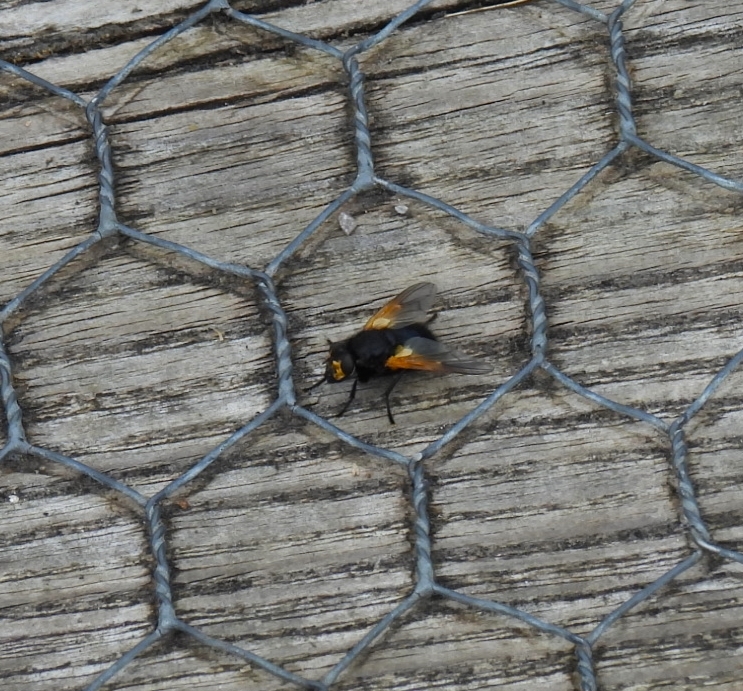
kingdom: Animalia
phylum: Arthropoda
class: Insecta
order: Diptera
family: Muscidae
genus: Mesembrina
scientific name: Mesembrina meridiana
